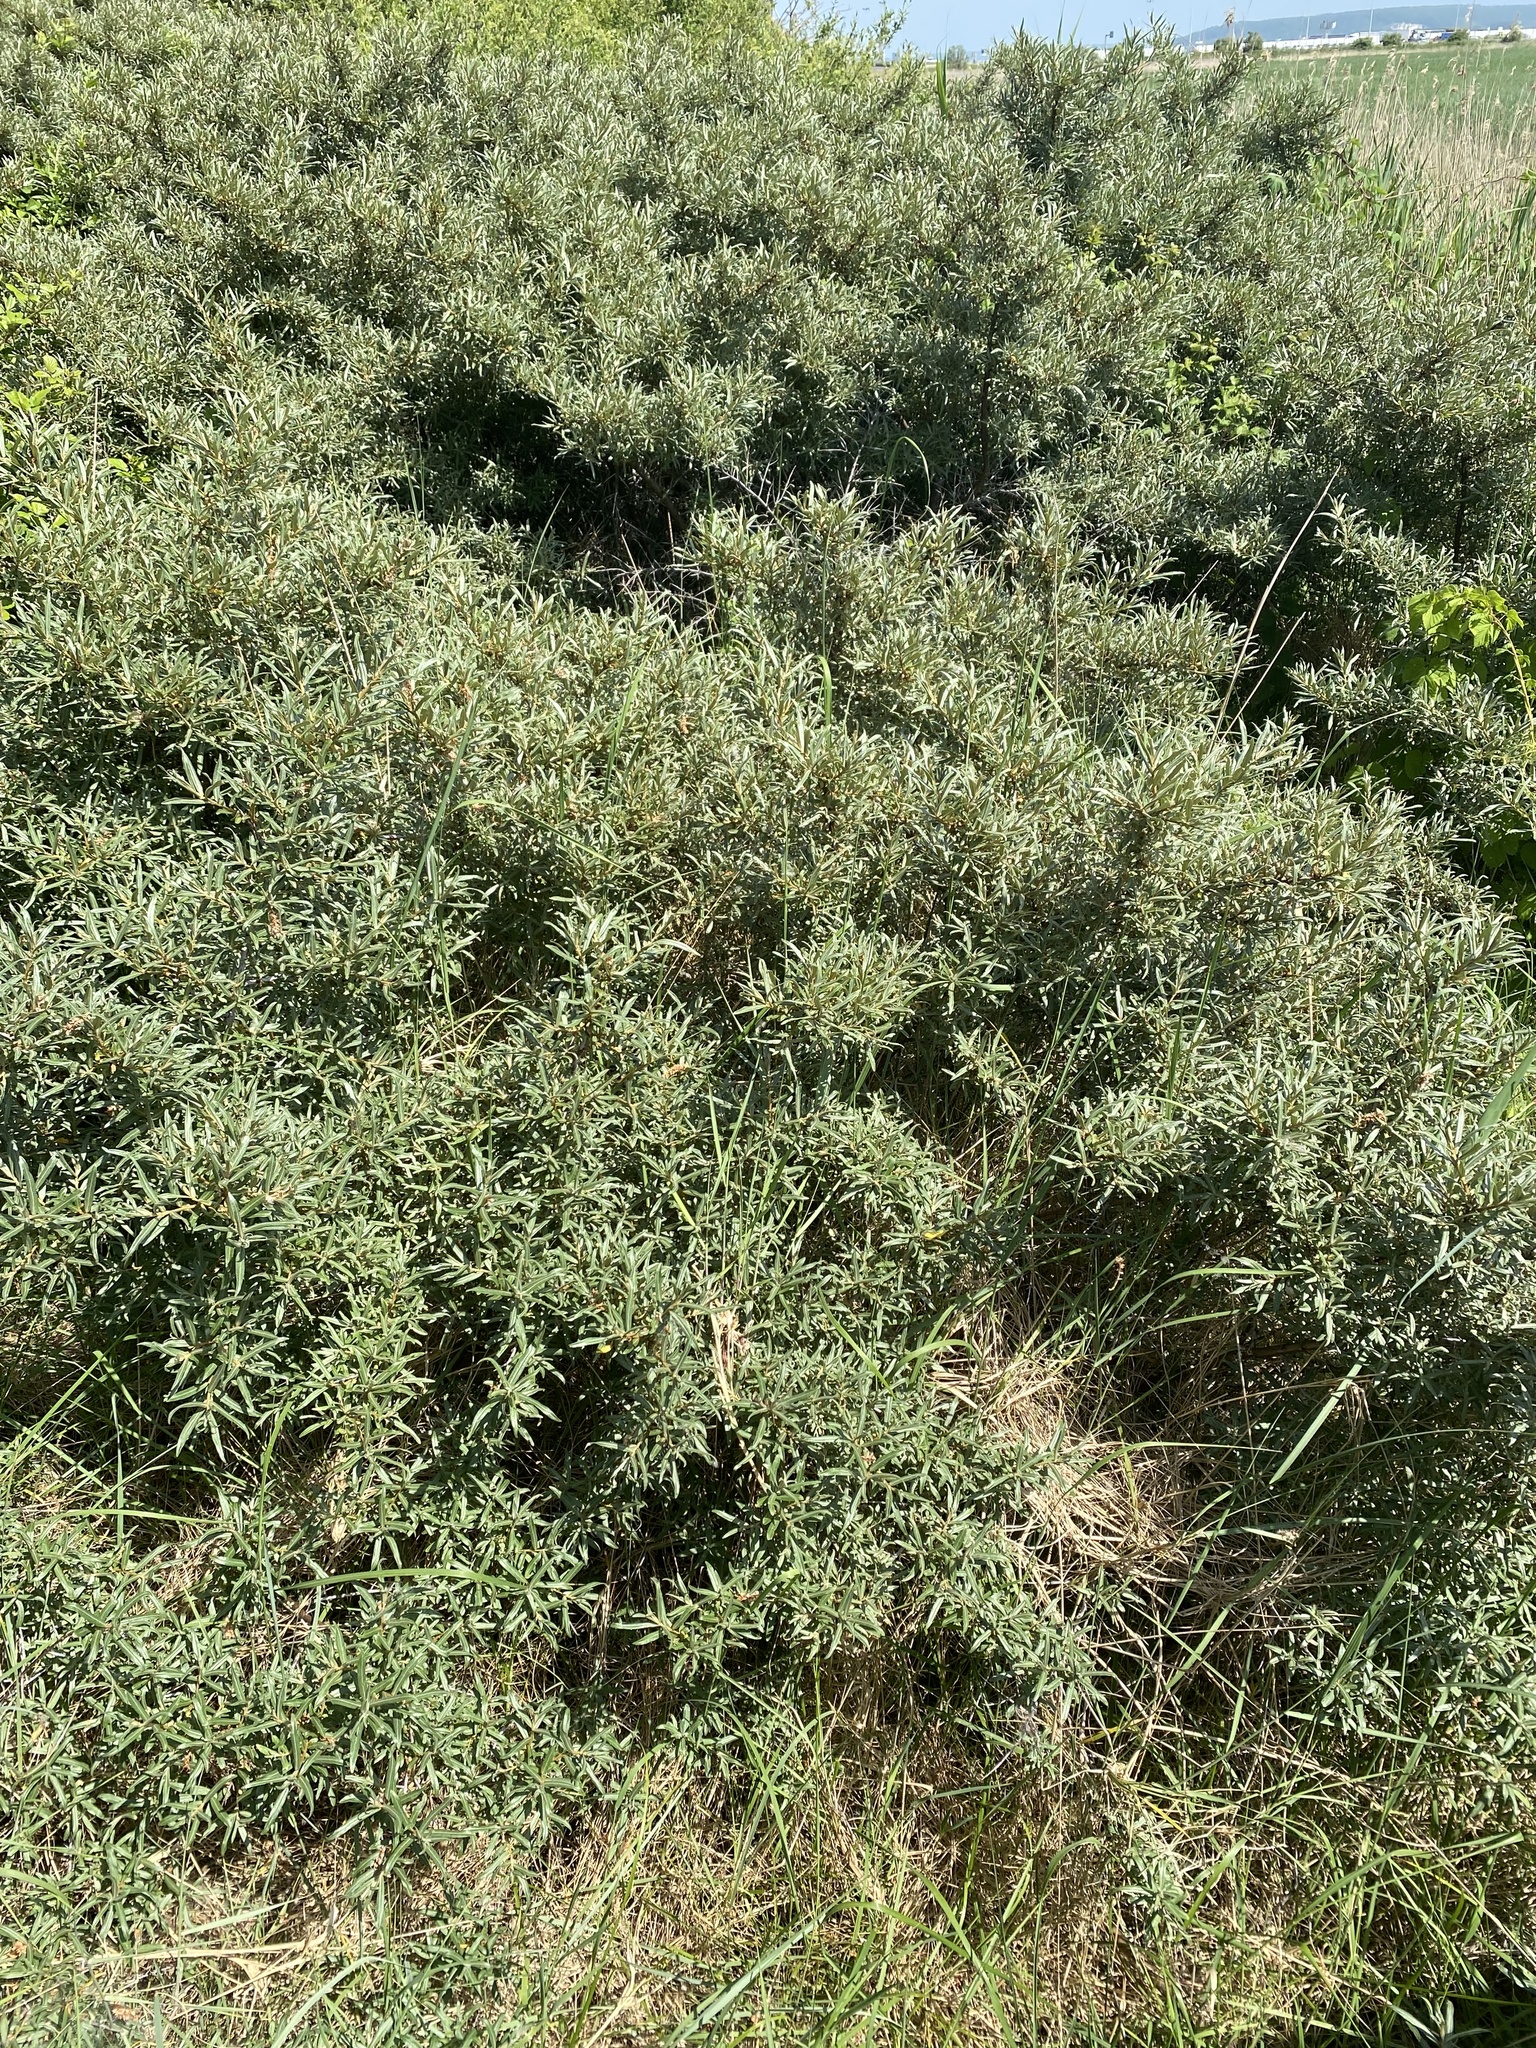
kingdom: Plantae
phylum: Tracheophyta
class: Magnoliopsida
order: Rosales
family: Elaeagnaceae
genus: Hippophae
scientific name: Hippophae rhamnoides
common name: Sea-buckthorn
